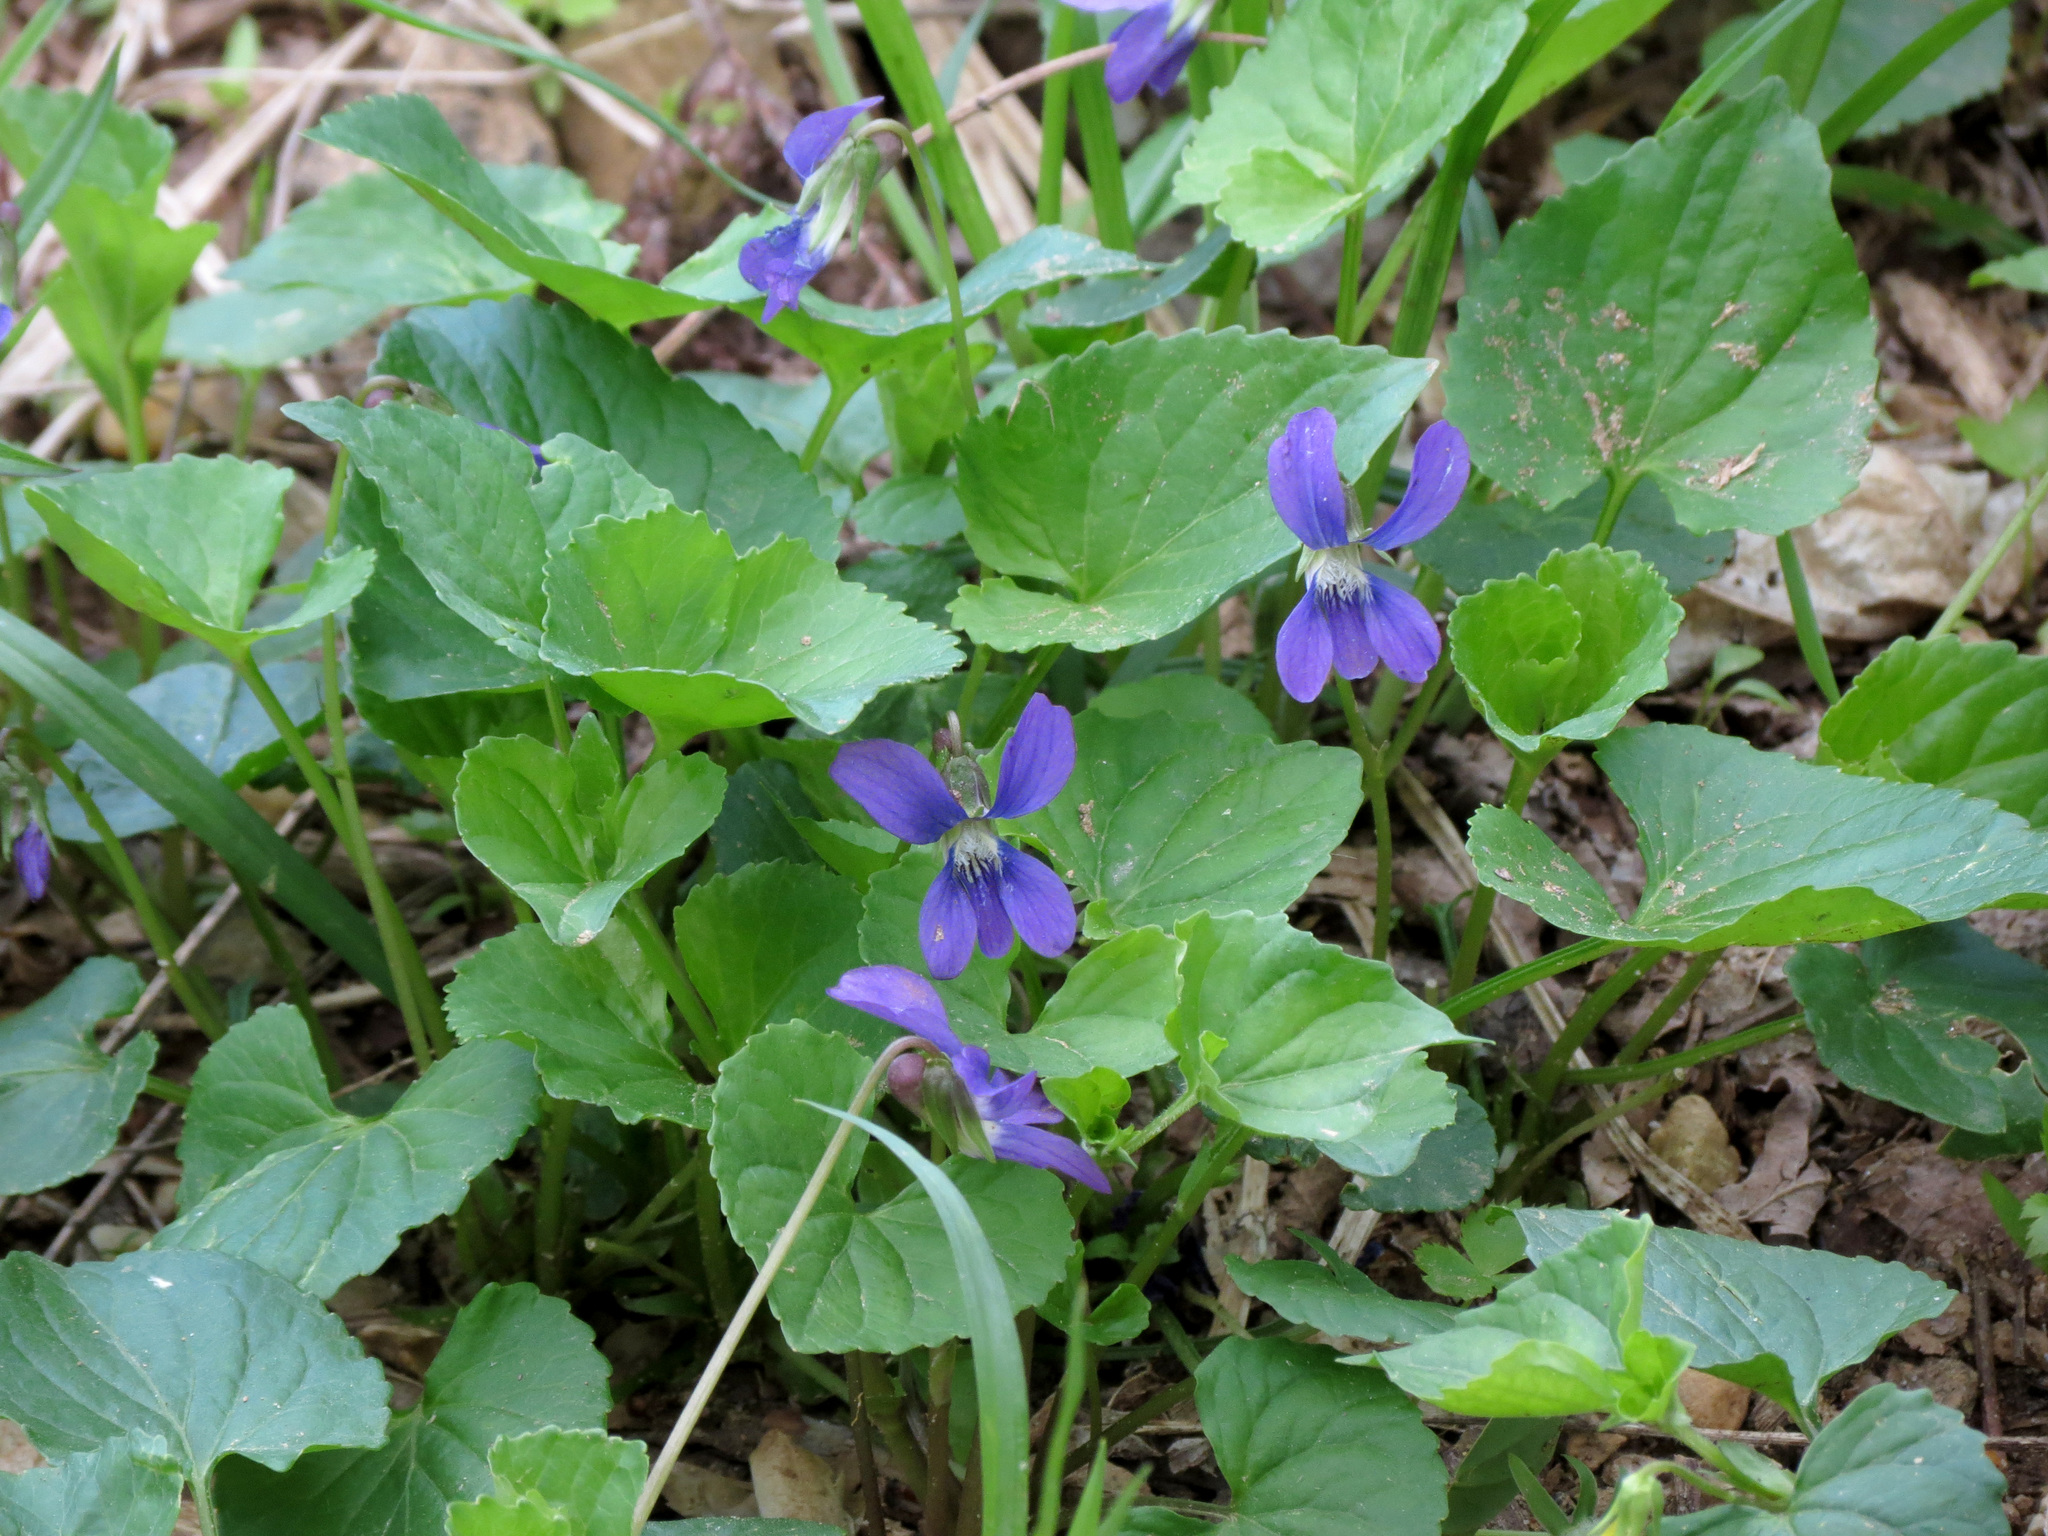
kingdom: Plantae
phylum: Tracheophyta
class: Magnoliopsida
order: Malpighiales
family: Violaceae
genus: Viola
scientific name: Viola sororia
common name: Dooryard violet
